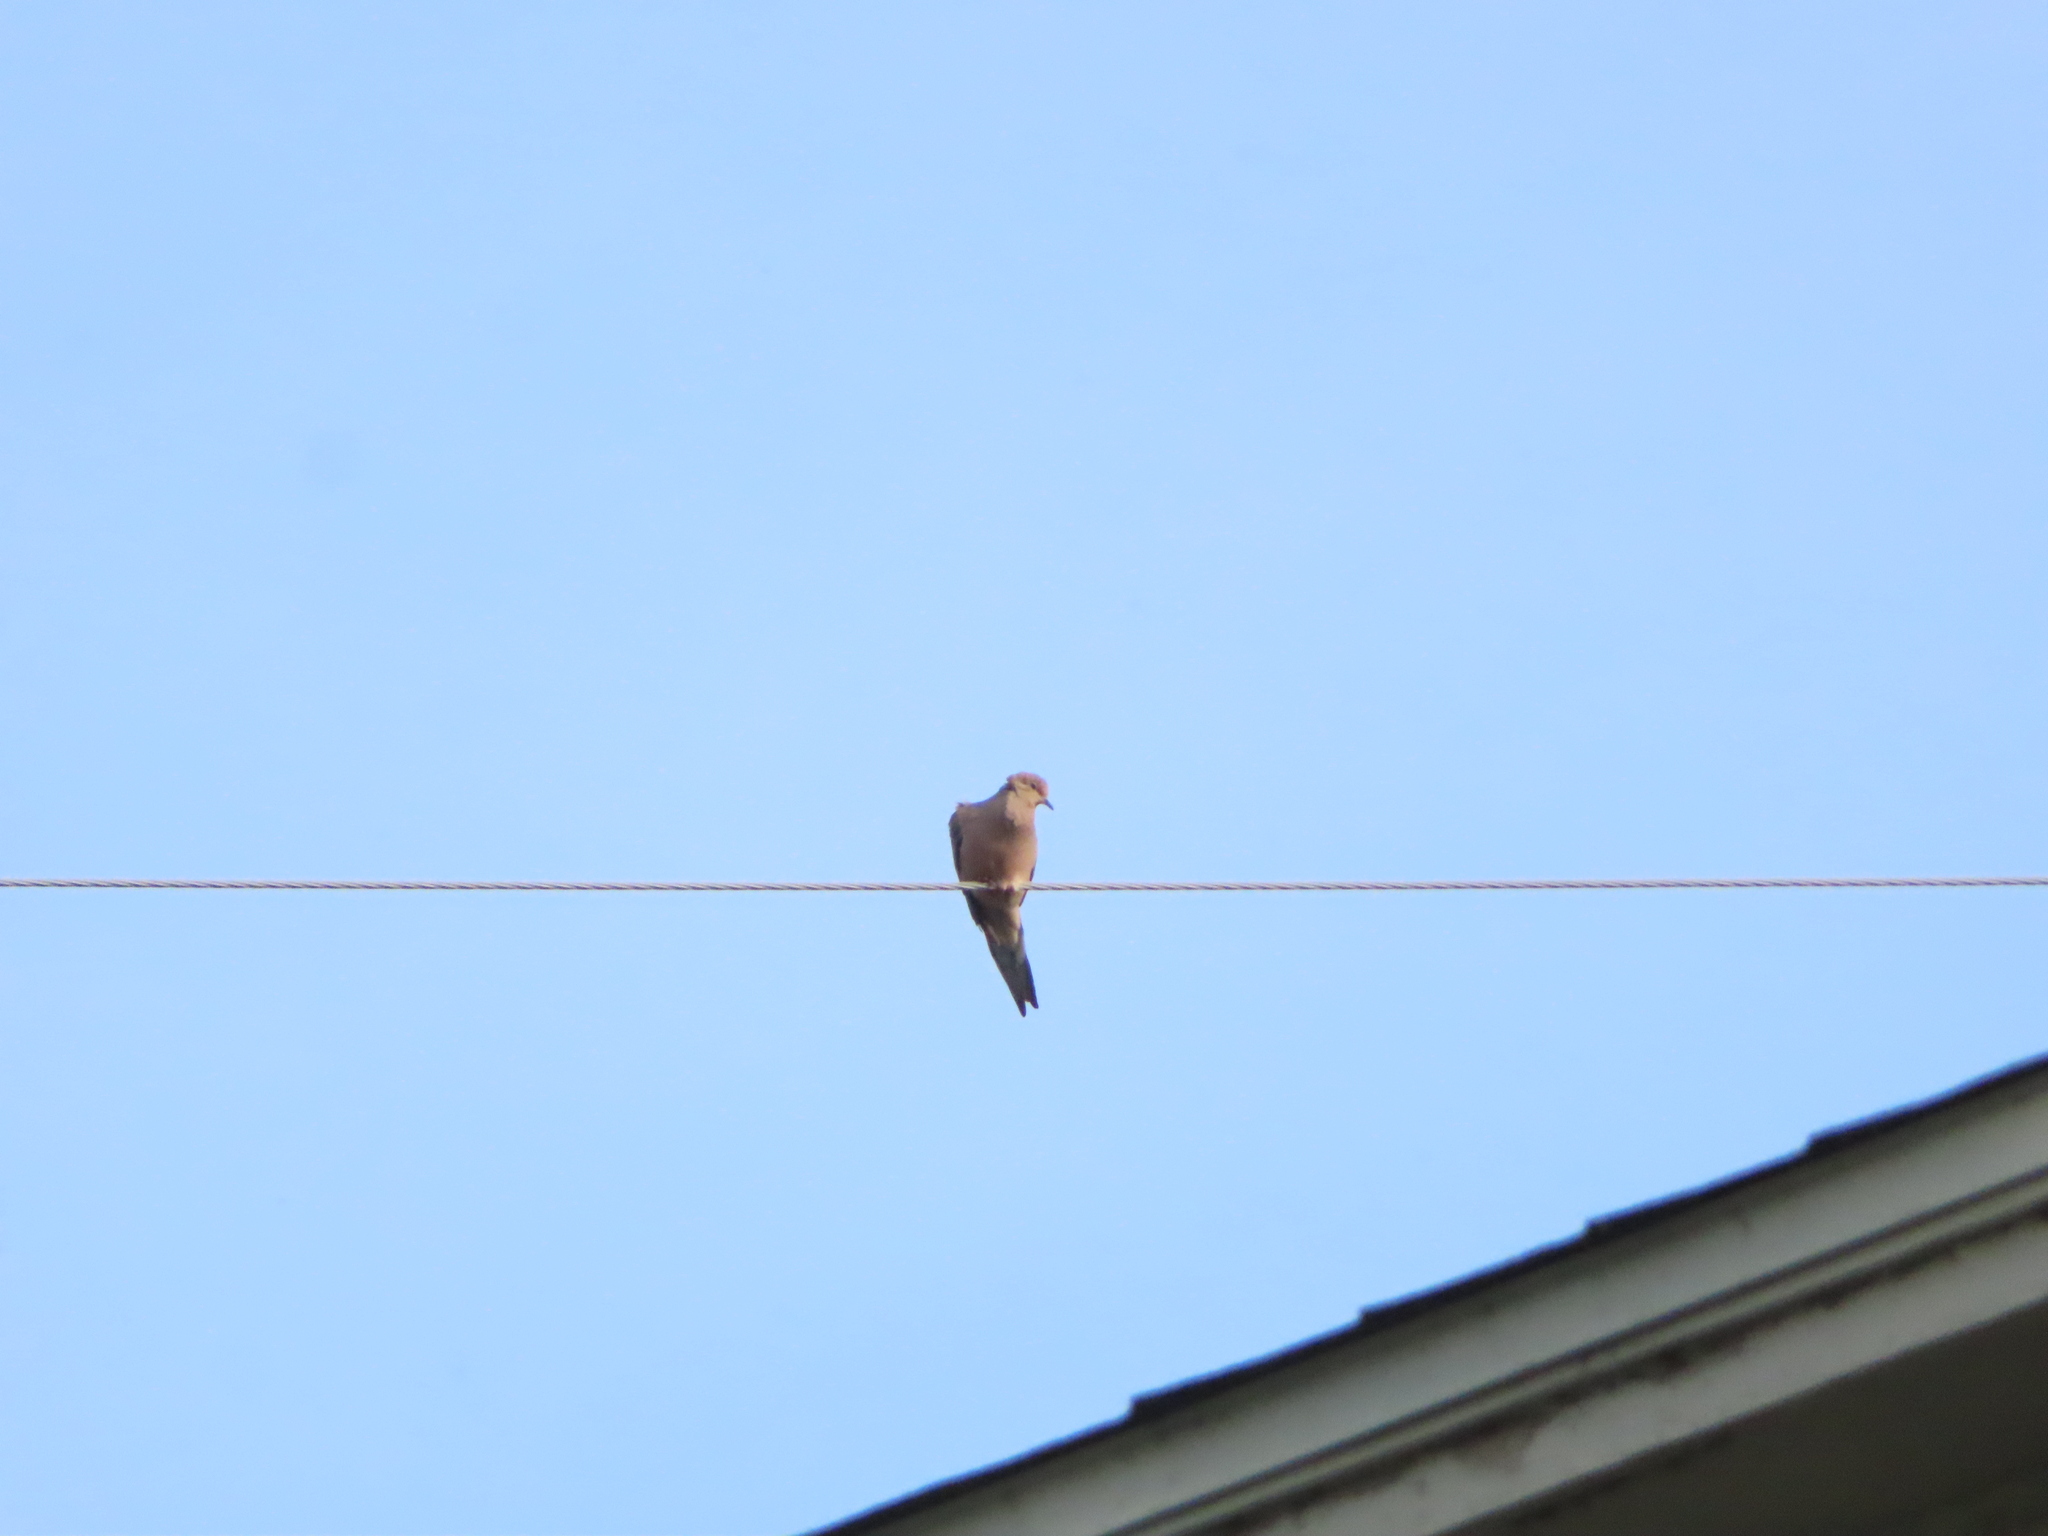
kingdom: Animalia
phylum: Chordata
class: Aves
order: Columbiformes
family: Columbidae
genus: Zenaida
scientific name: Zenaida macroura
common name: Mourning dove
